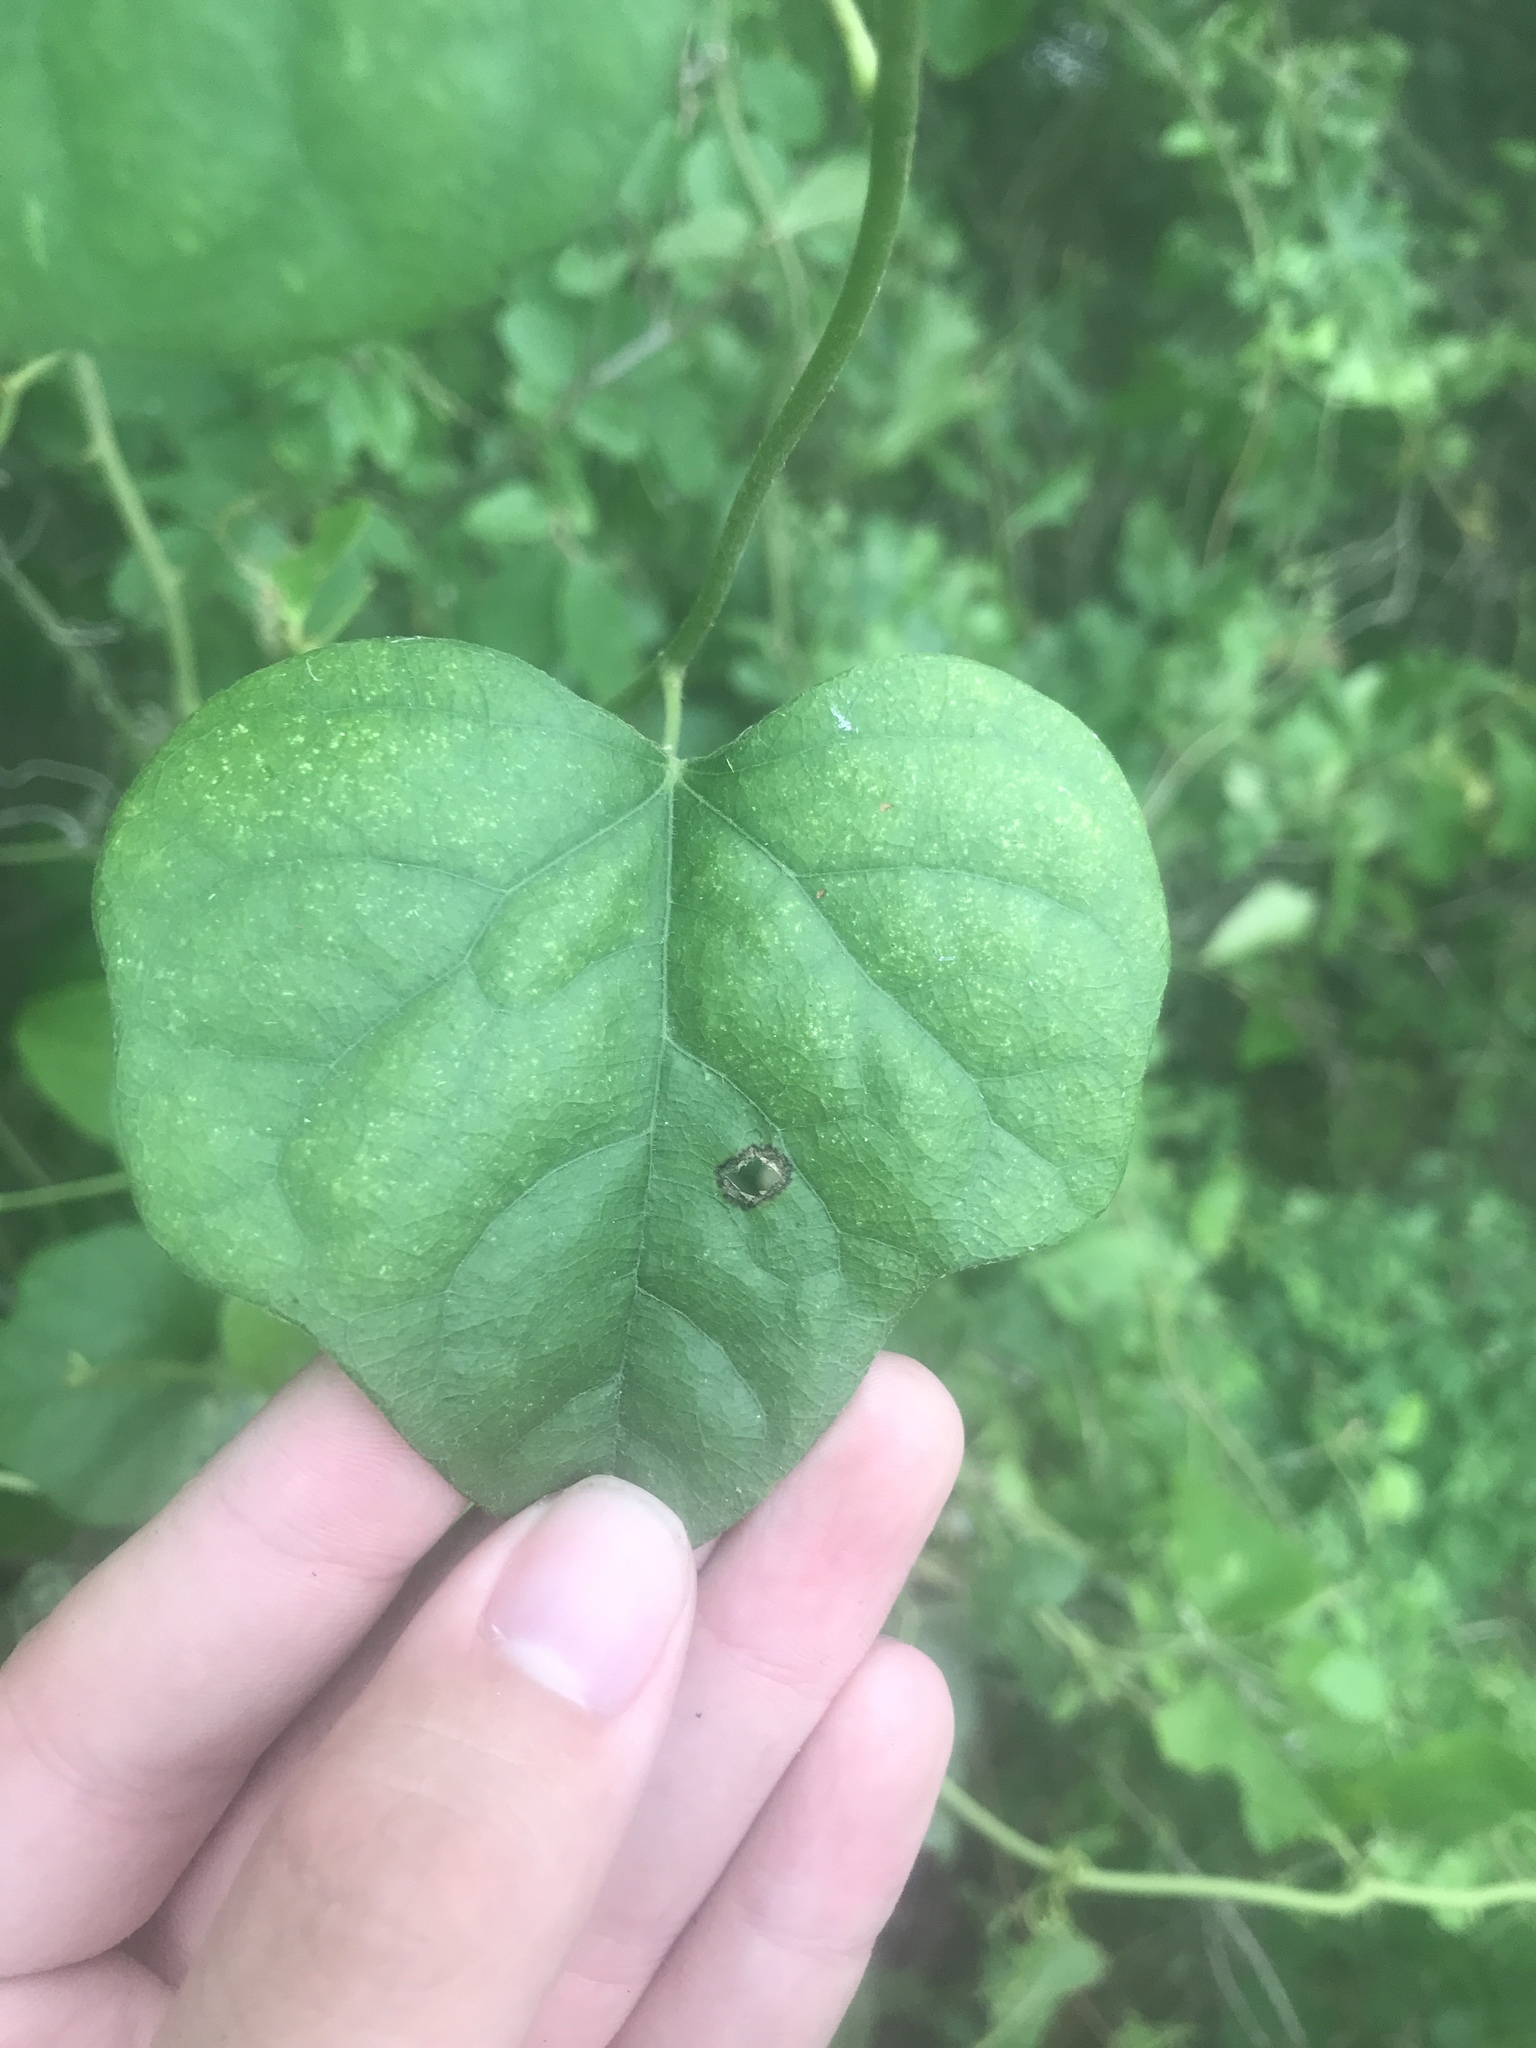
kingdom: Plantae
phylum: Tracheophyta
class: Magnoliopsida
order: Ranunculales
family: Menispermaceae
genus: Cocculus
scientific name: Cocculus carolinus
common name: Carolina moonseed
